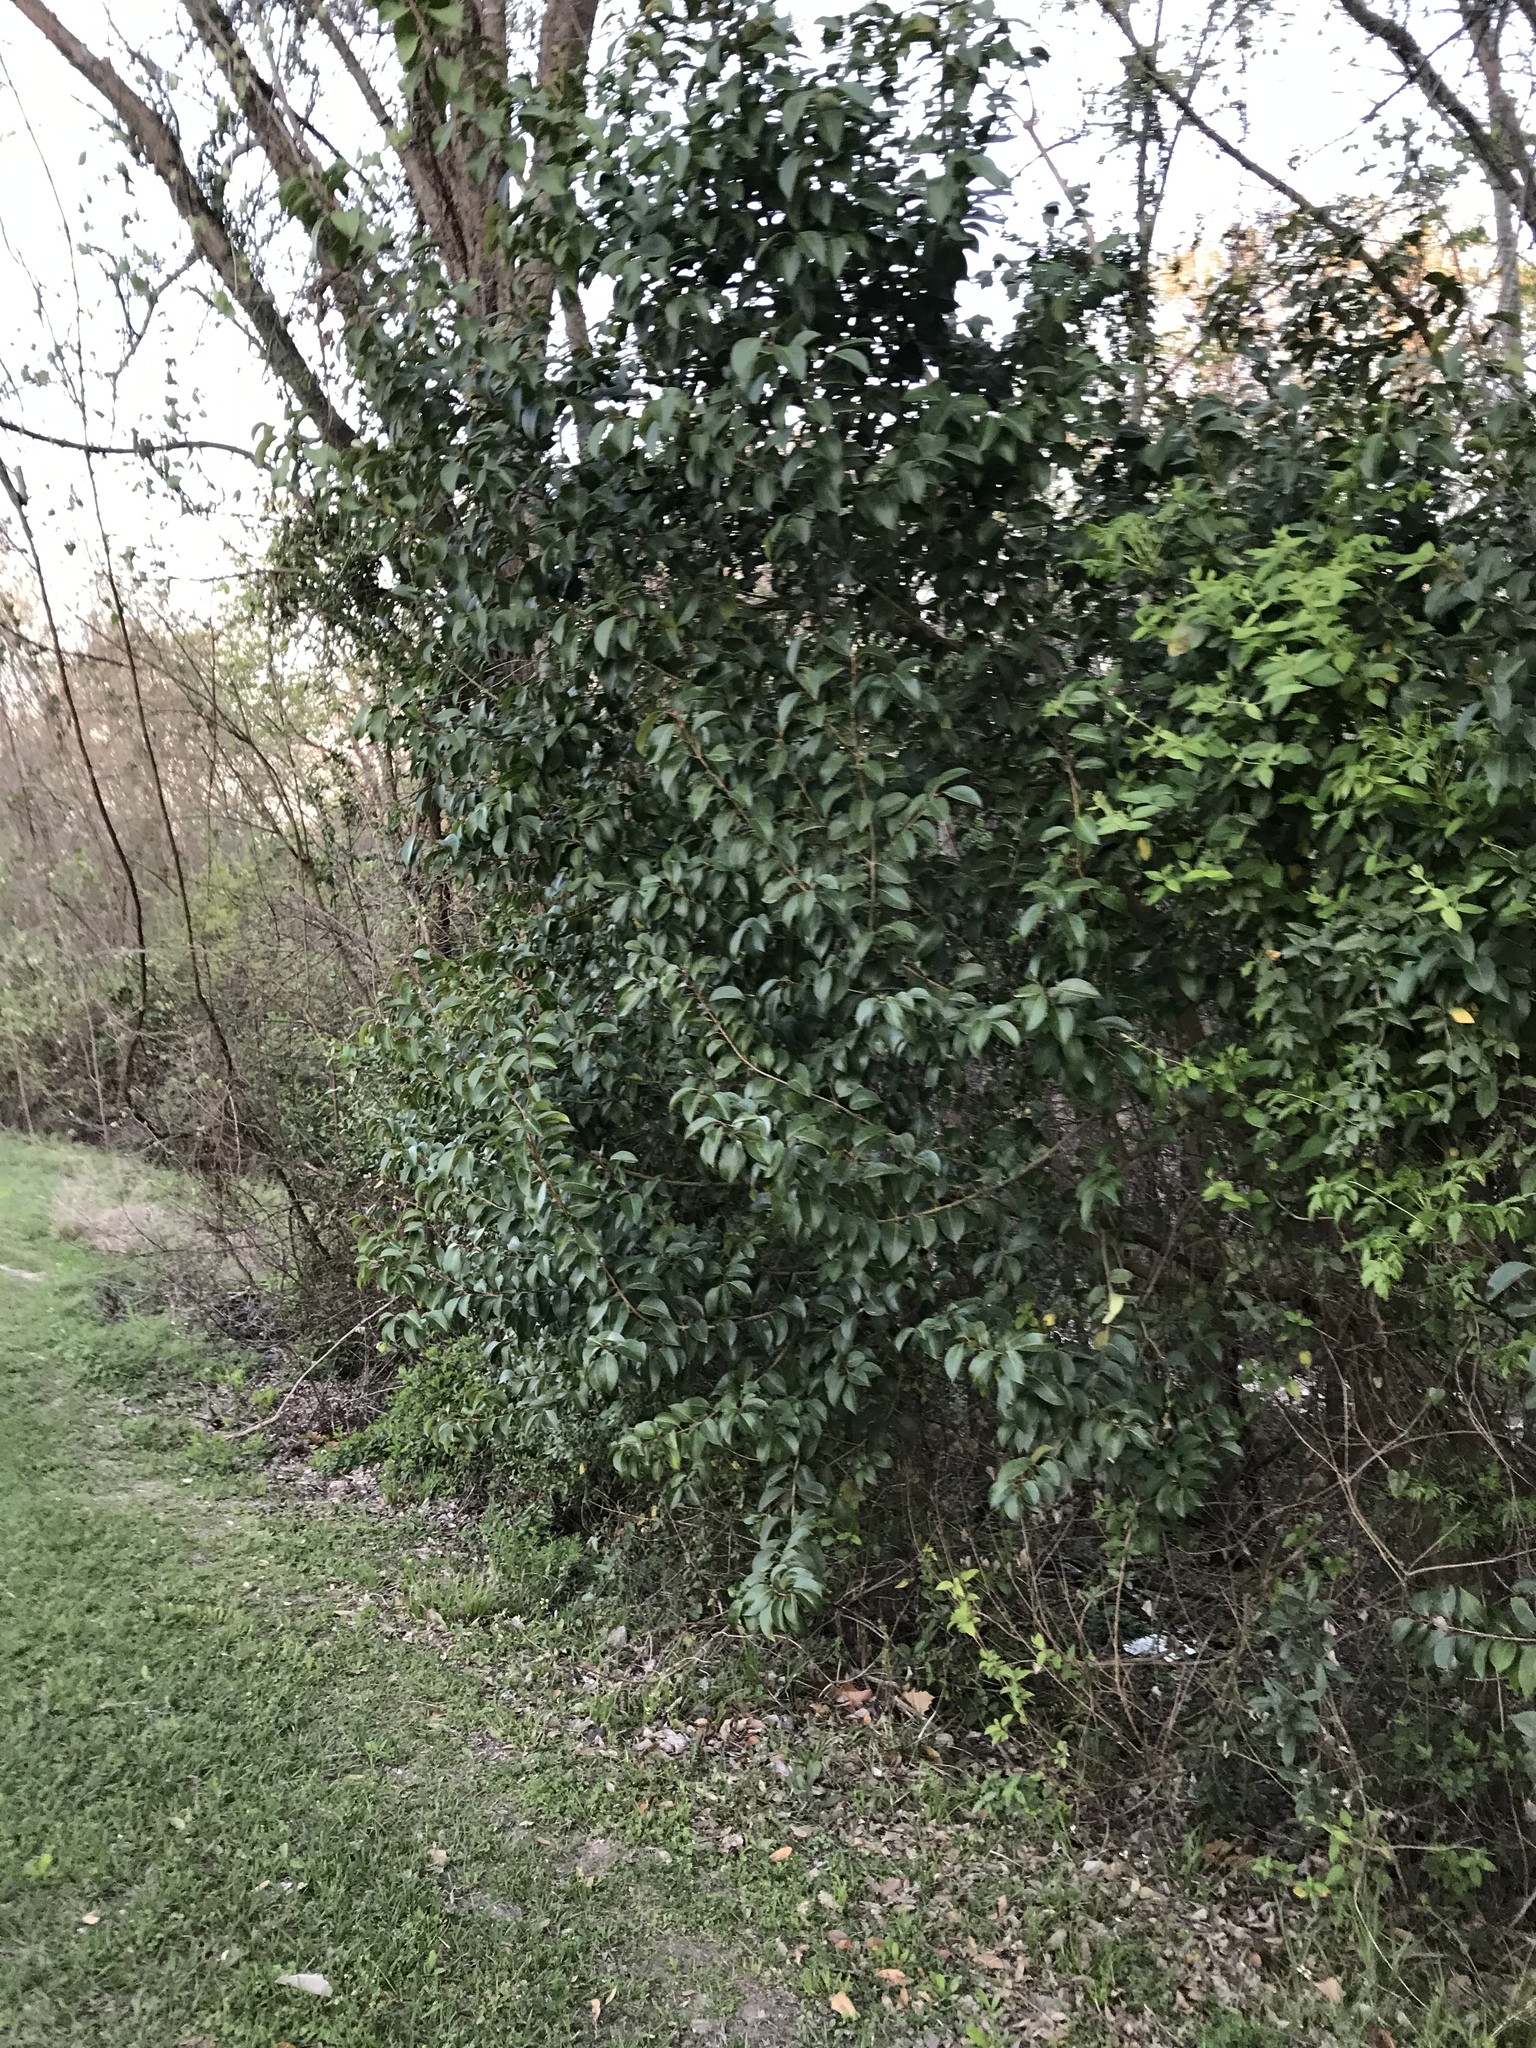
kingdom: Plantae
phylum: Tracheophyta
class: Magnoliopsida
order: Lamiales
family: Oleaceae
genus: Ligustrum
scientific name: Ligustrum lucidum
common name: Glossy privet
